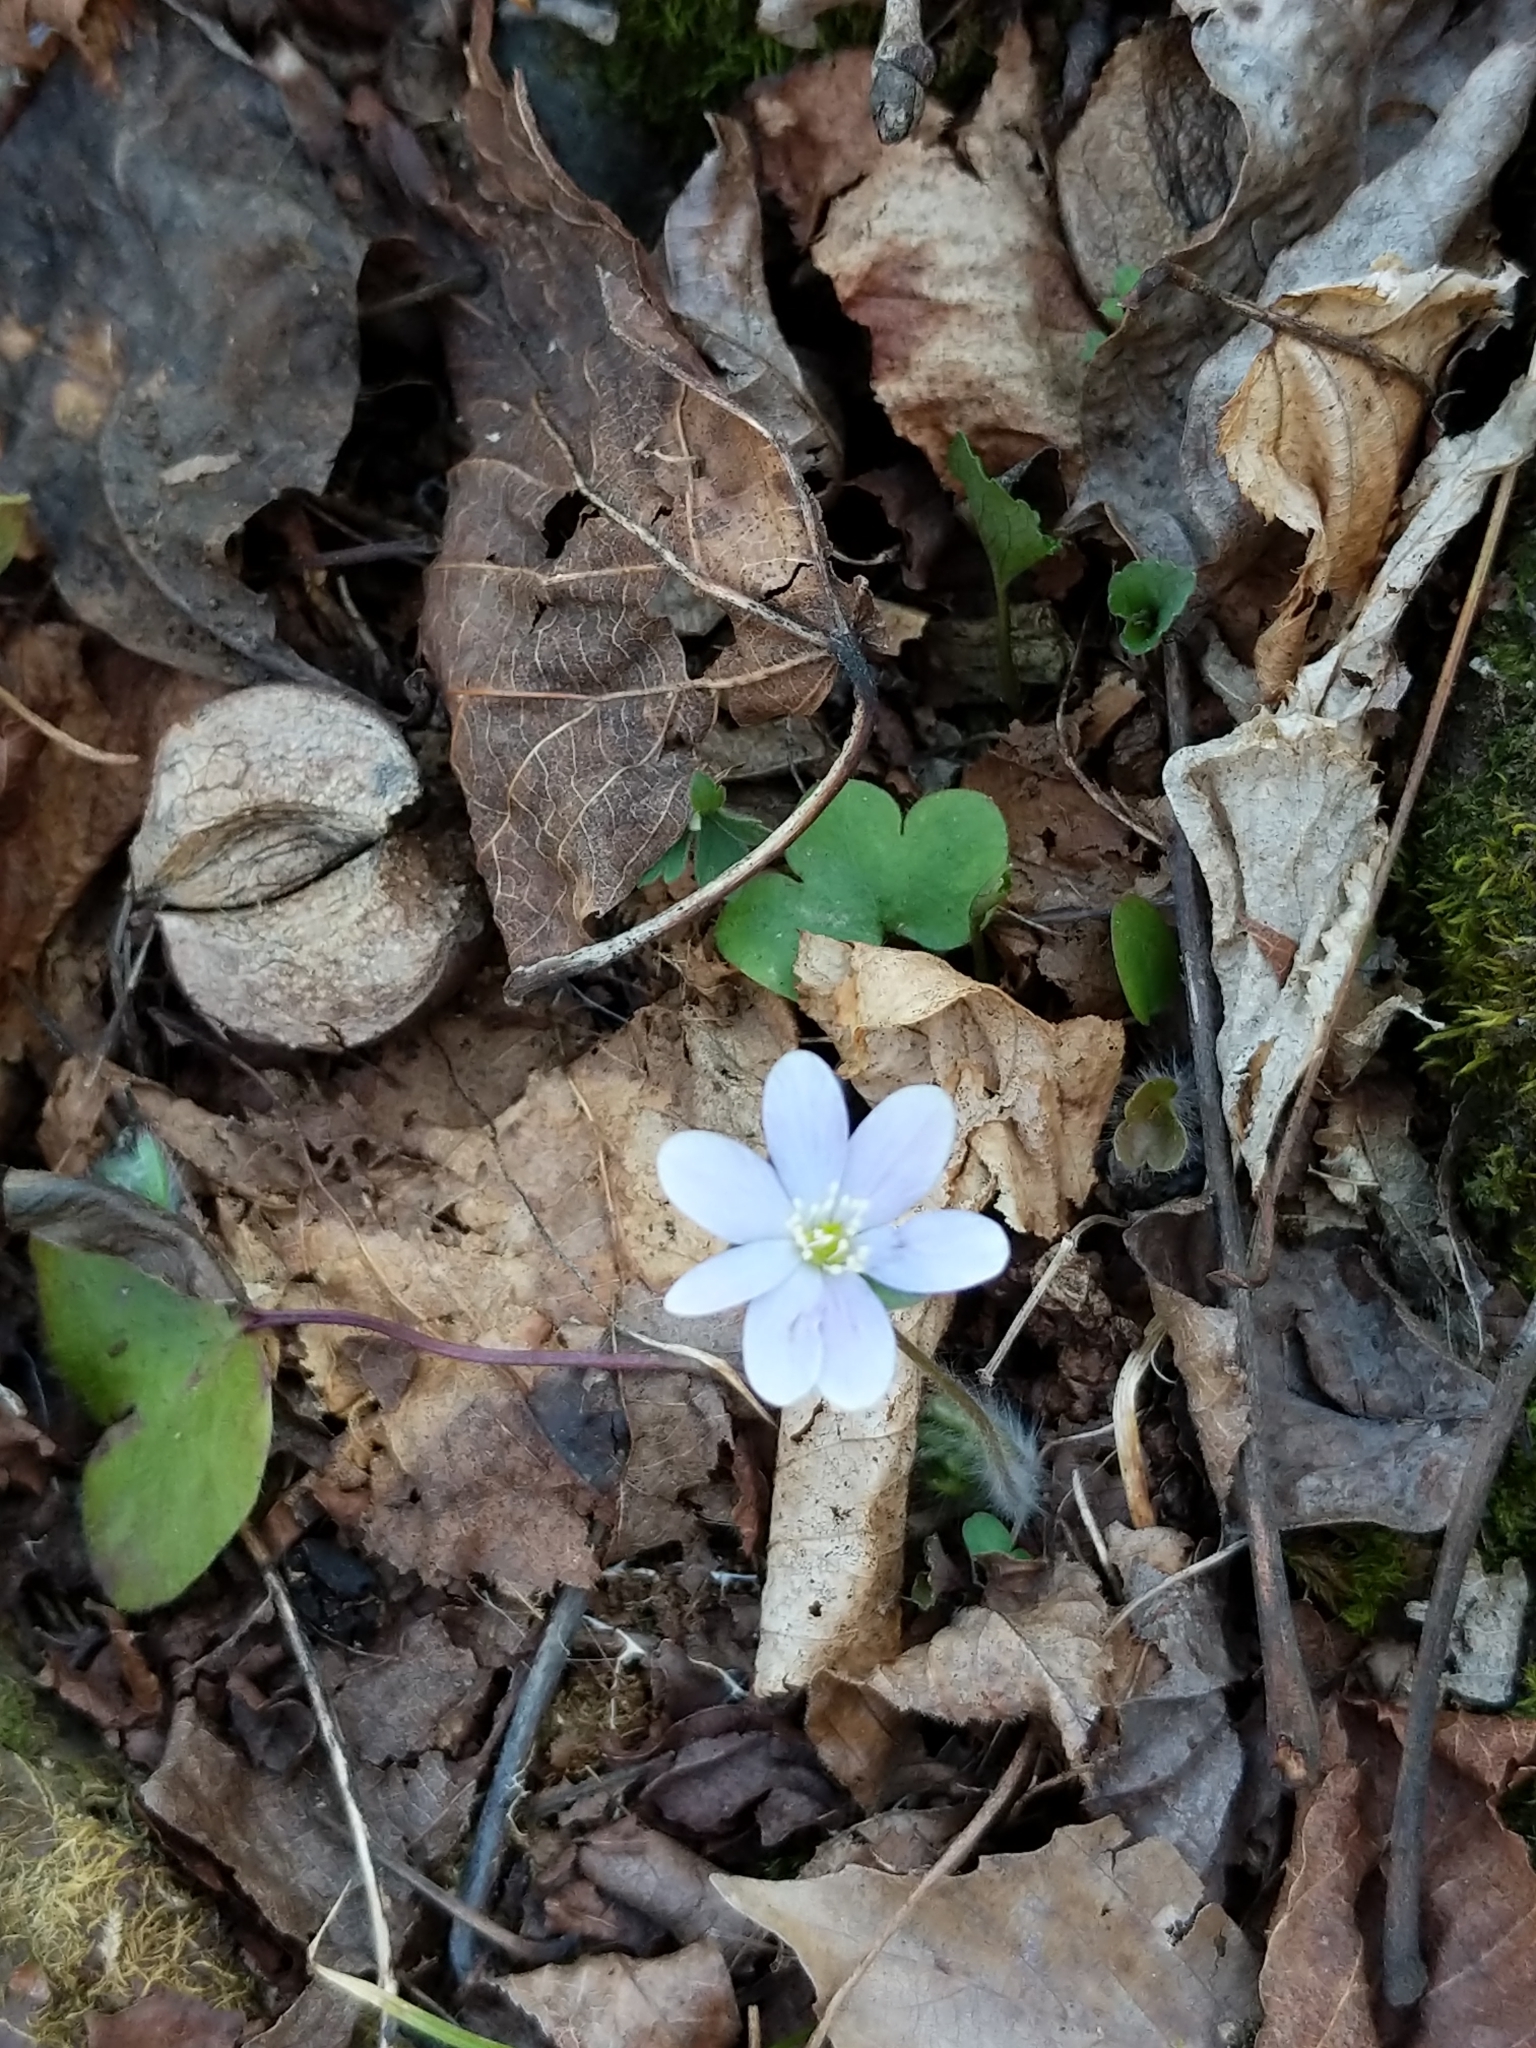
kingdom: Plantae
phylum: Tracheophyta
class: Magnoliopsida
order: Ranunculales
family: Ranunculaceae
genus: Hepatica
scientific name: Hepatica americana
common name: American hepatica
